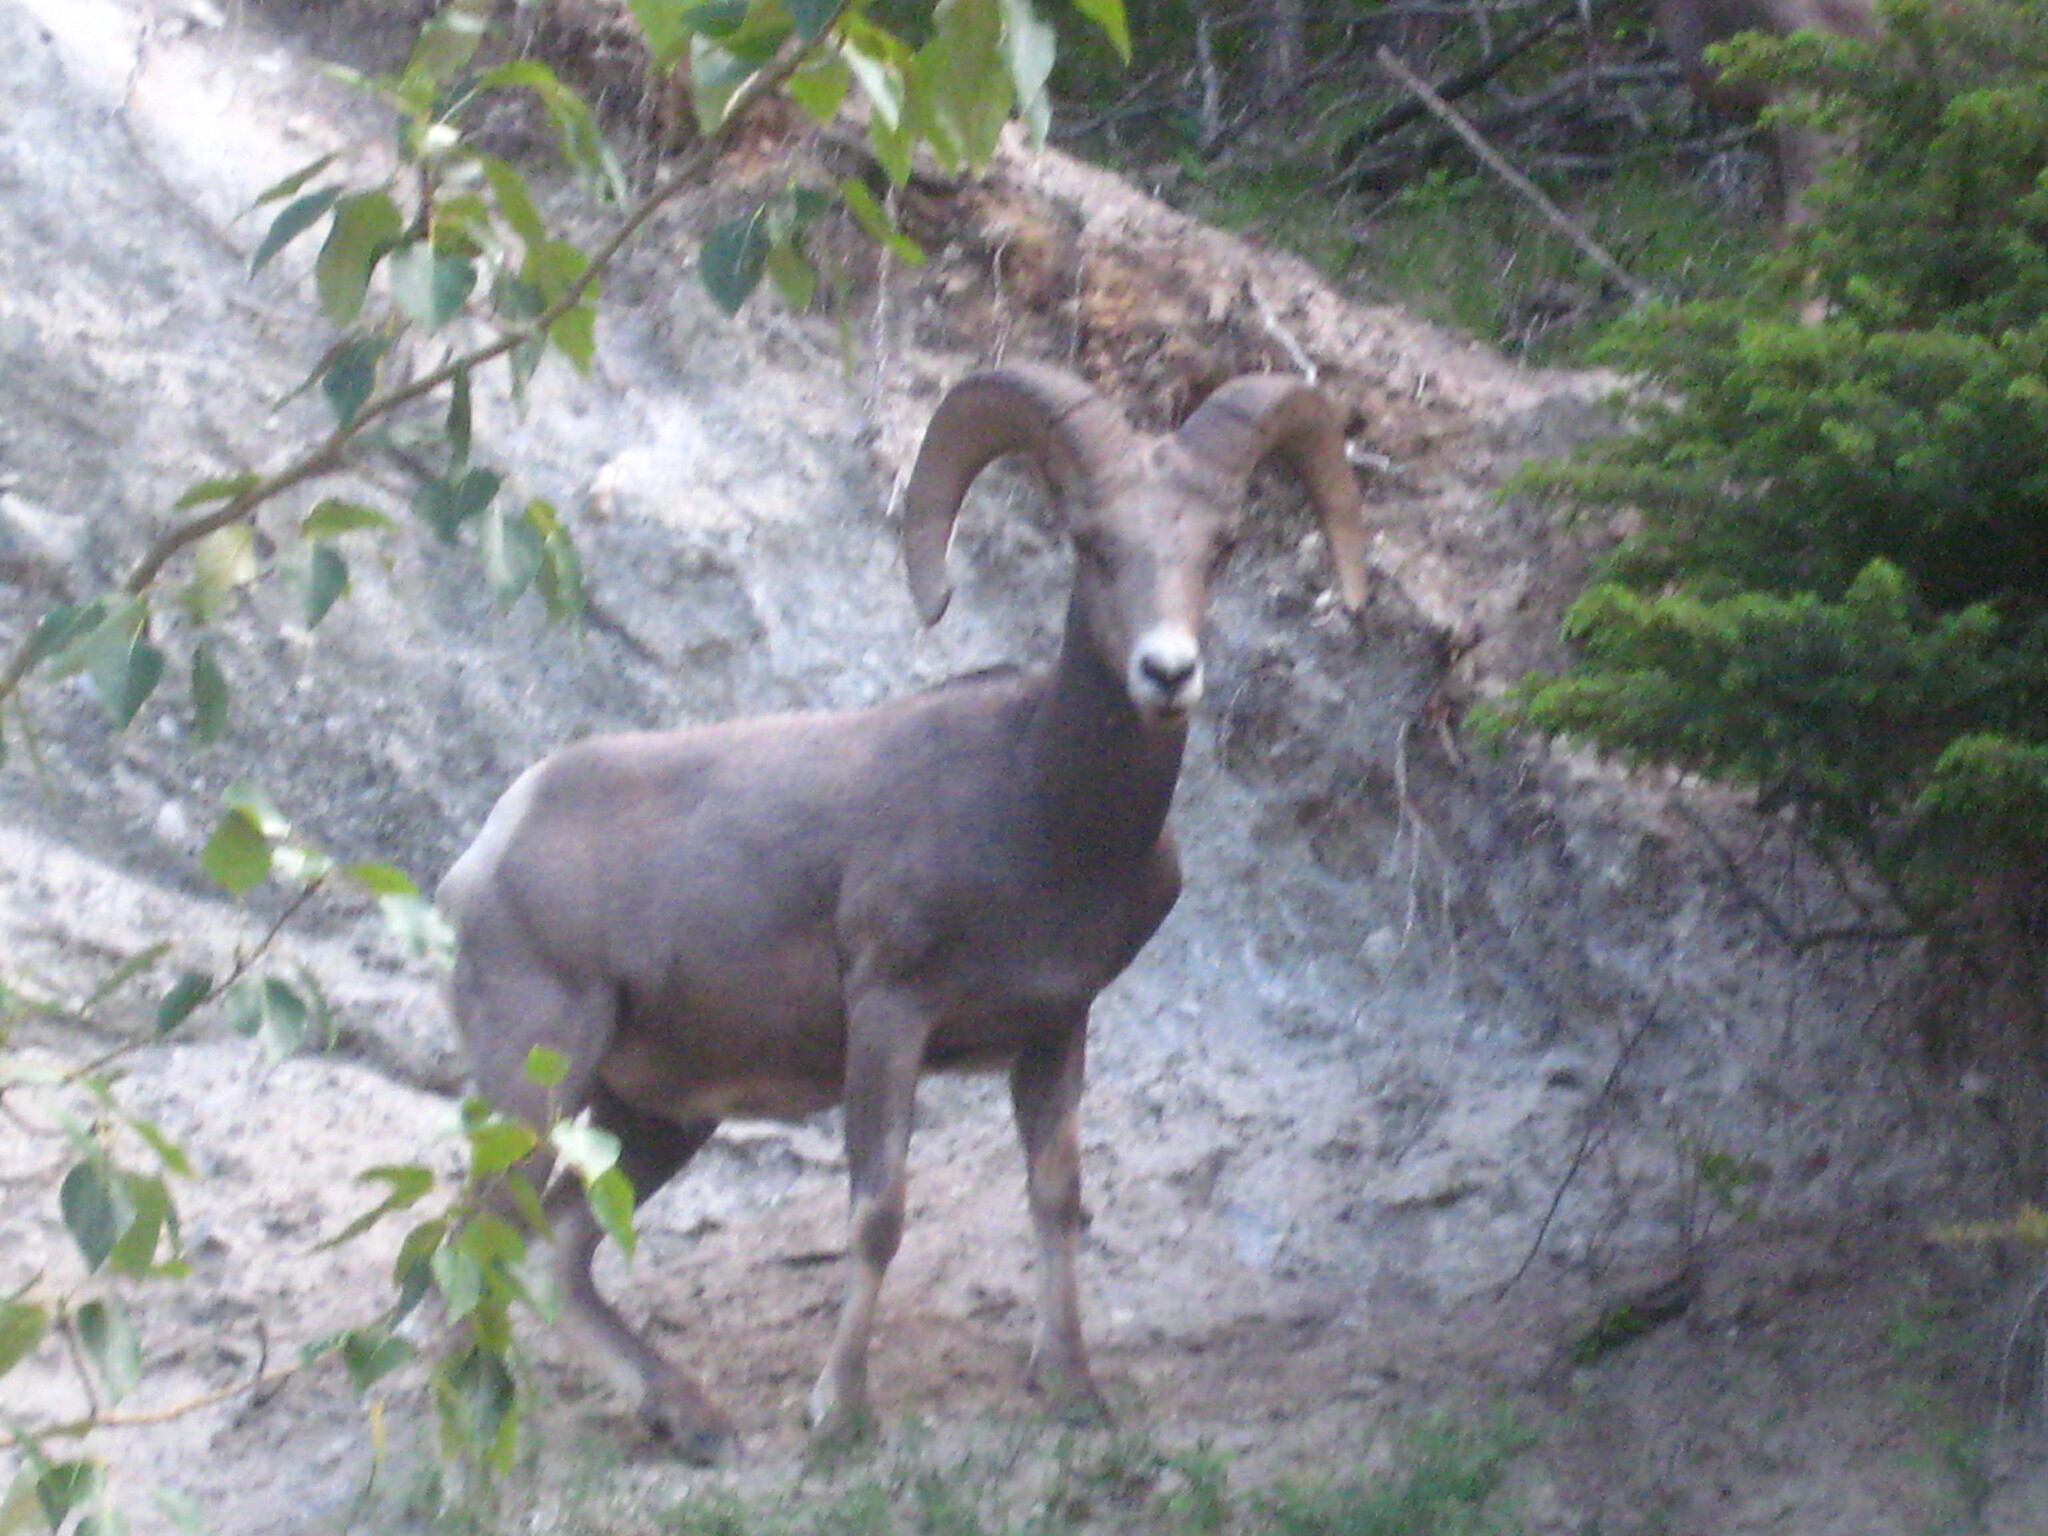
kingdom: Animalia
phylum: Chordata
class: Mammalia
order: Artiodactyla
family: Bovidae
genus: Ovis
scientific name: Ovis canadensis
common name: Bighorn sheep
